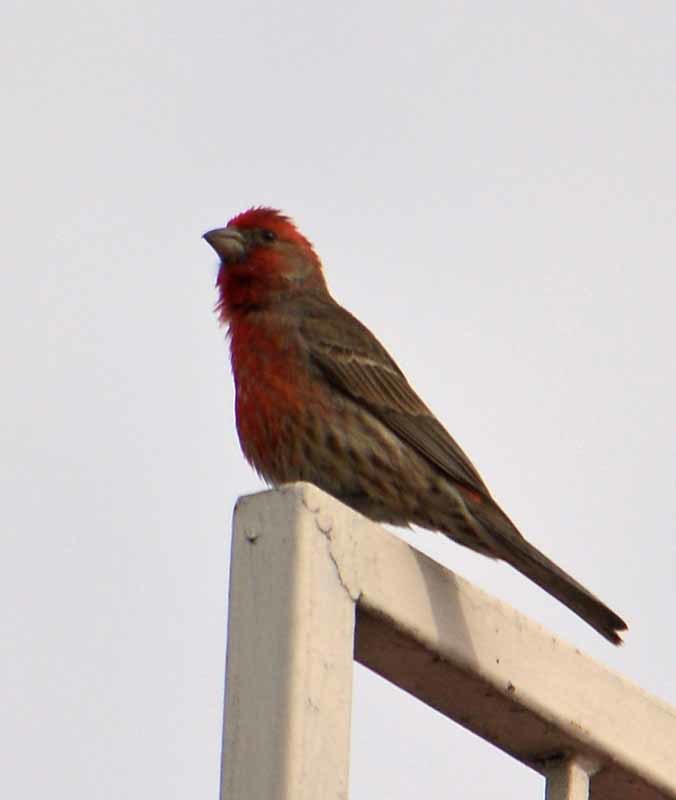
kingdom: Animalia
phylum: Chordata
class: Aves
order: Passeriformes
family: Fringillidae
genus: Haemorhous
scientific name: Haemorhous mexicanus
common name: House finch
